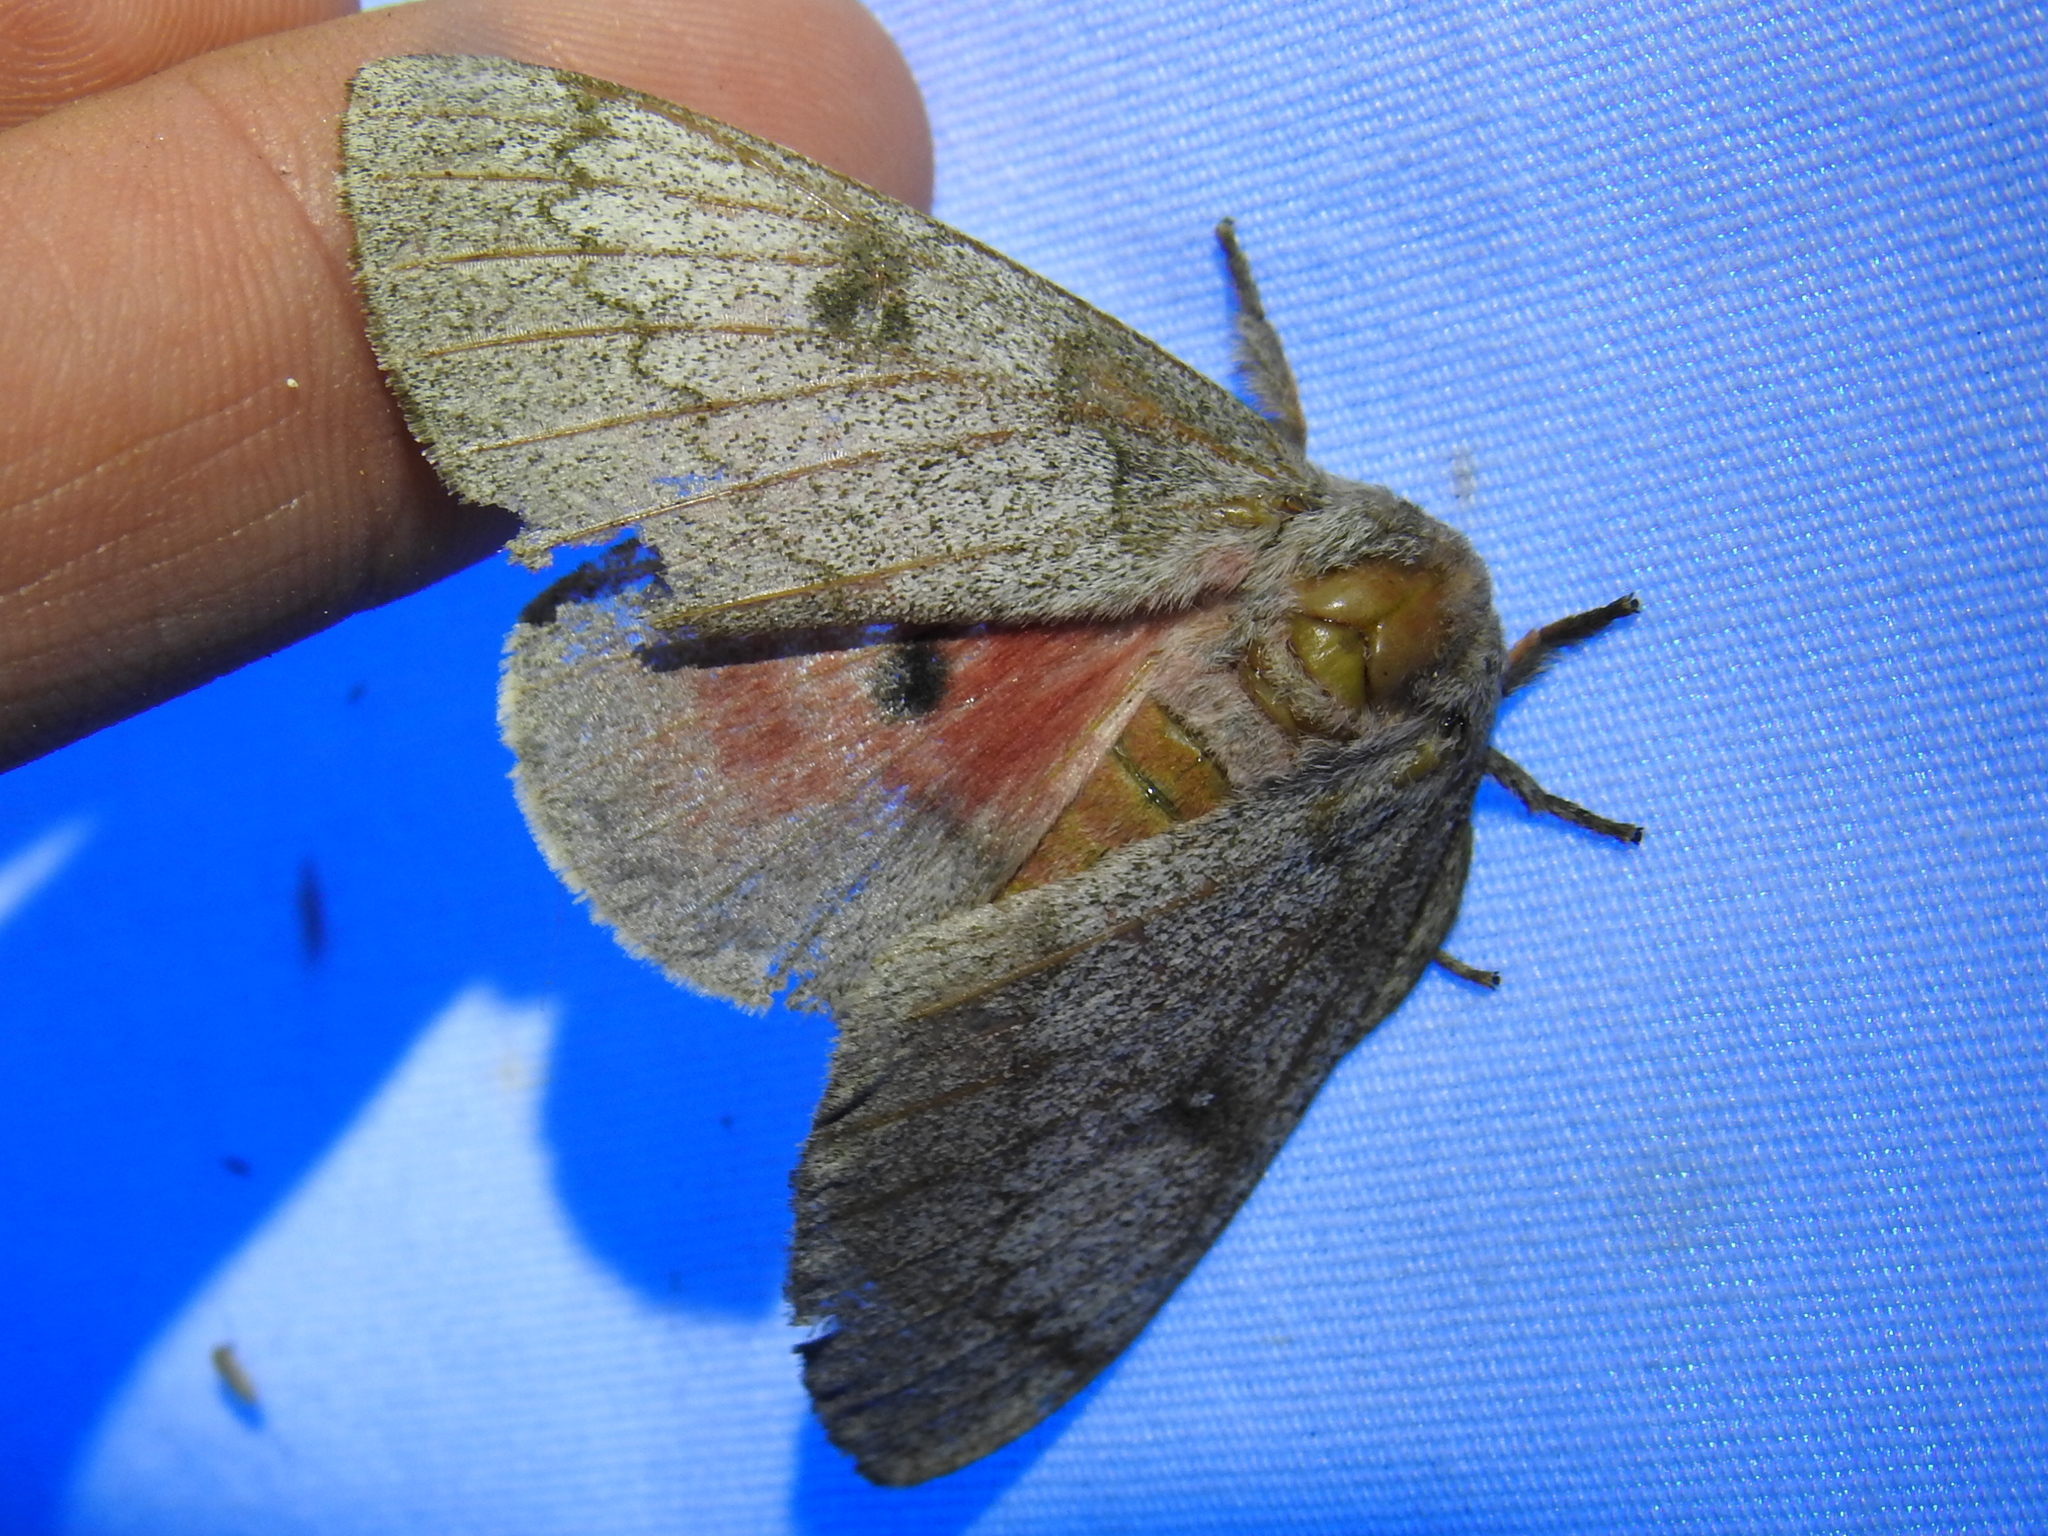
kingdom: Animalia
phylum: Arthropoda
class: Insecta
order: Lepidoptera
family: Saturniidae
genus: Syssphinx
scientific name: Syssphinx heiligbrodti
